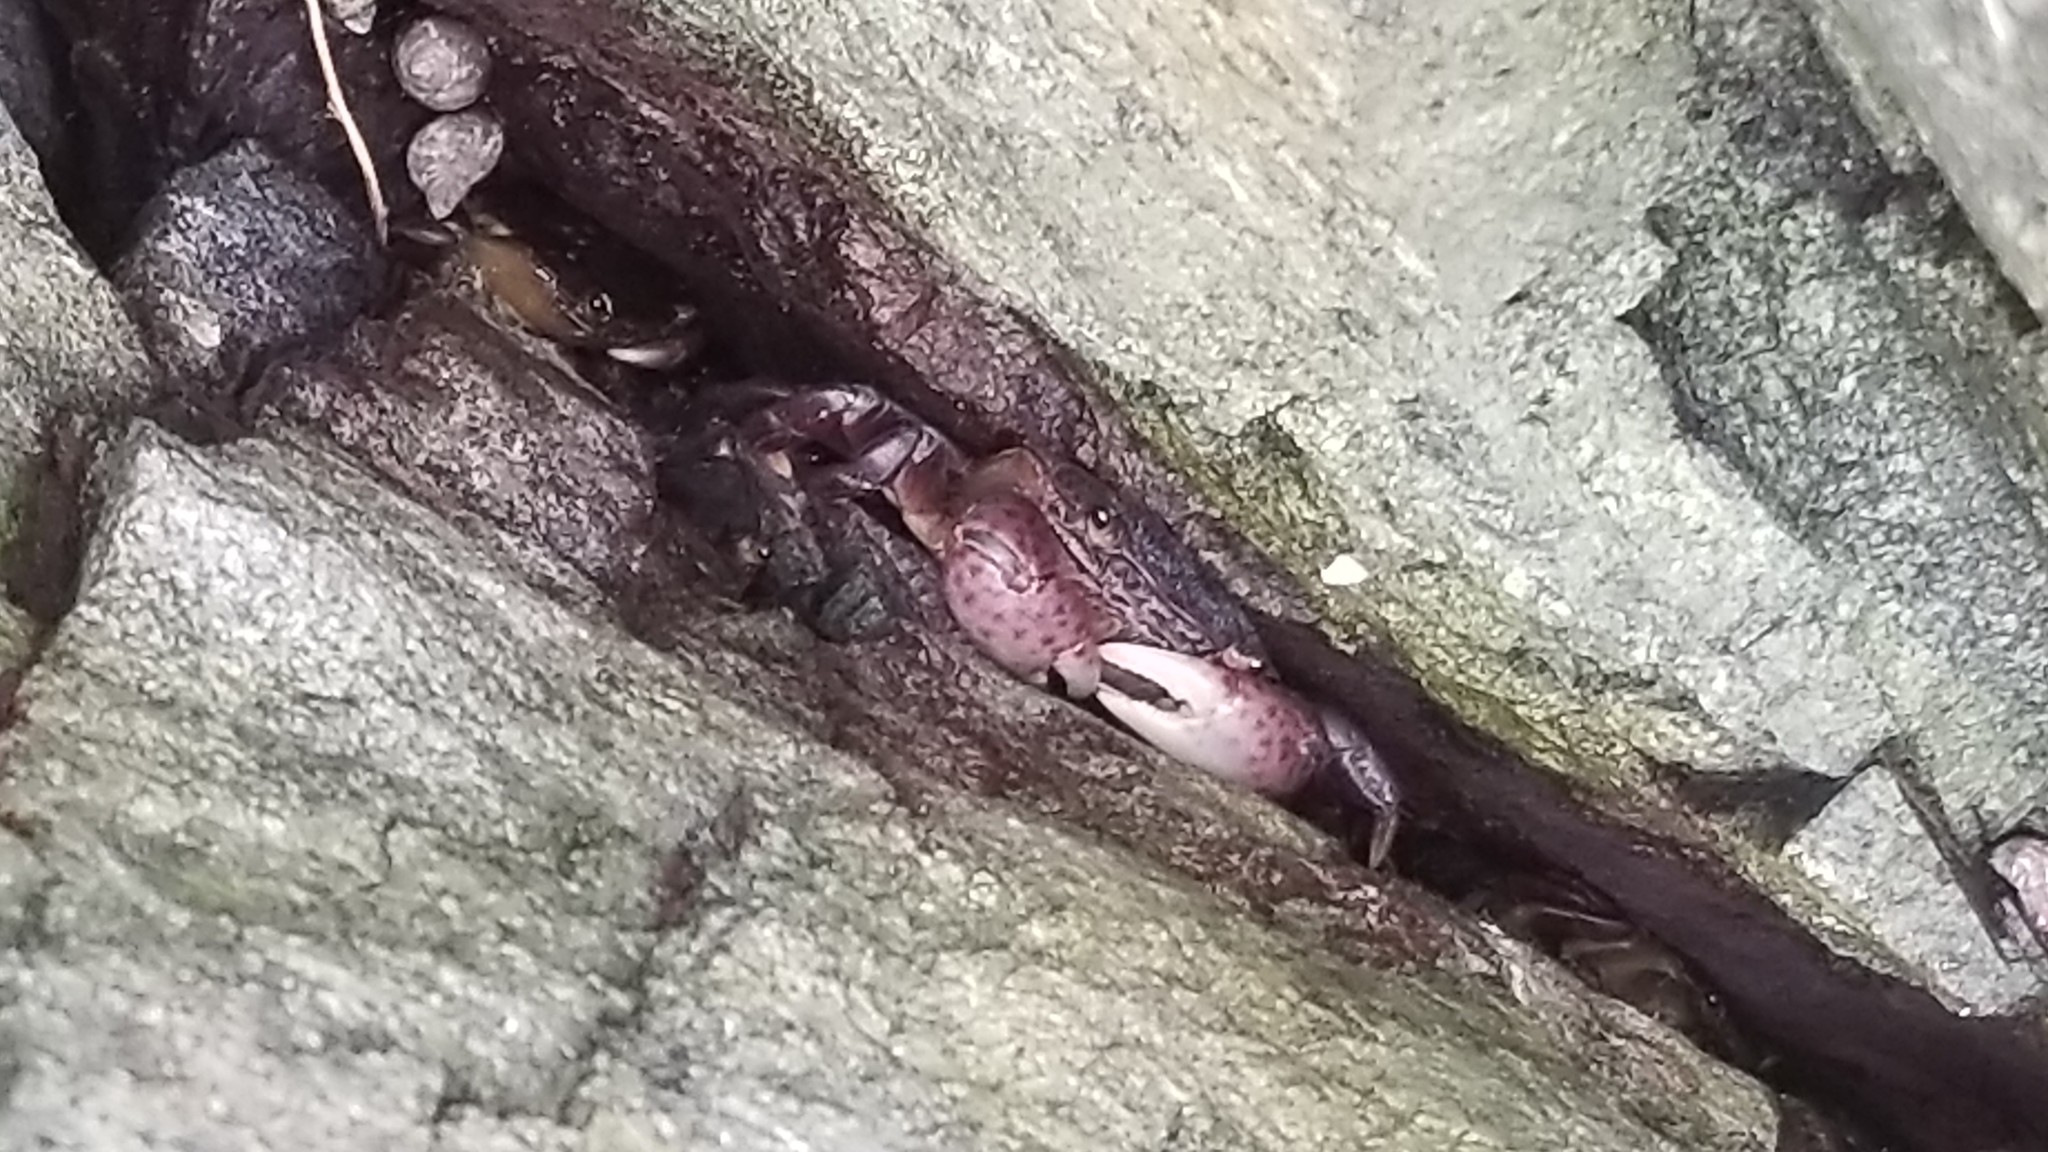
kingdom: Animalia
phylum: Arthropoda
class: Malacostraca
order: Decapoda
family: Varunidae
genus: Hemigrapsus
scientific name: Hemigrapsus nudus
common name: Purple shore crab
